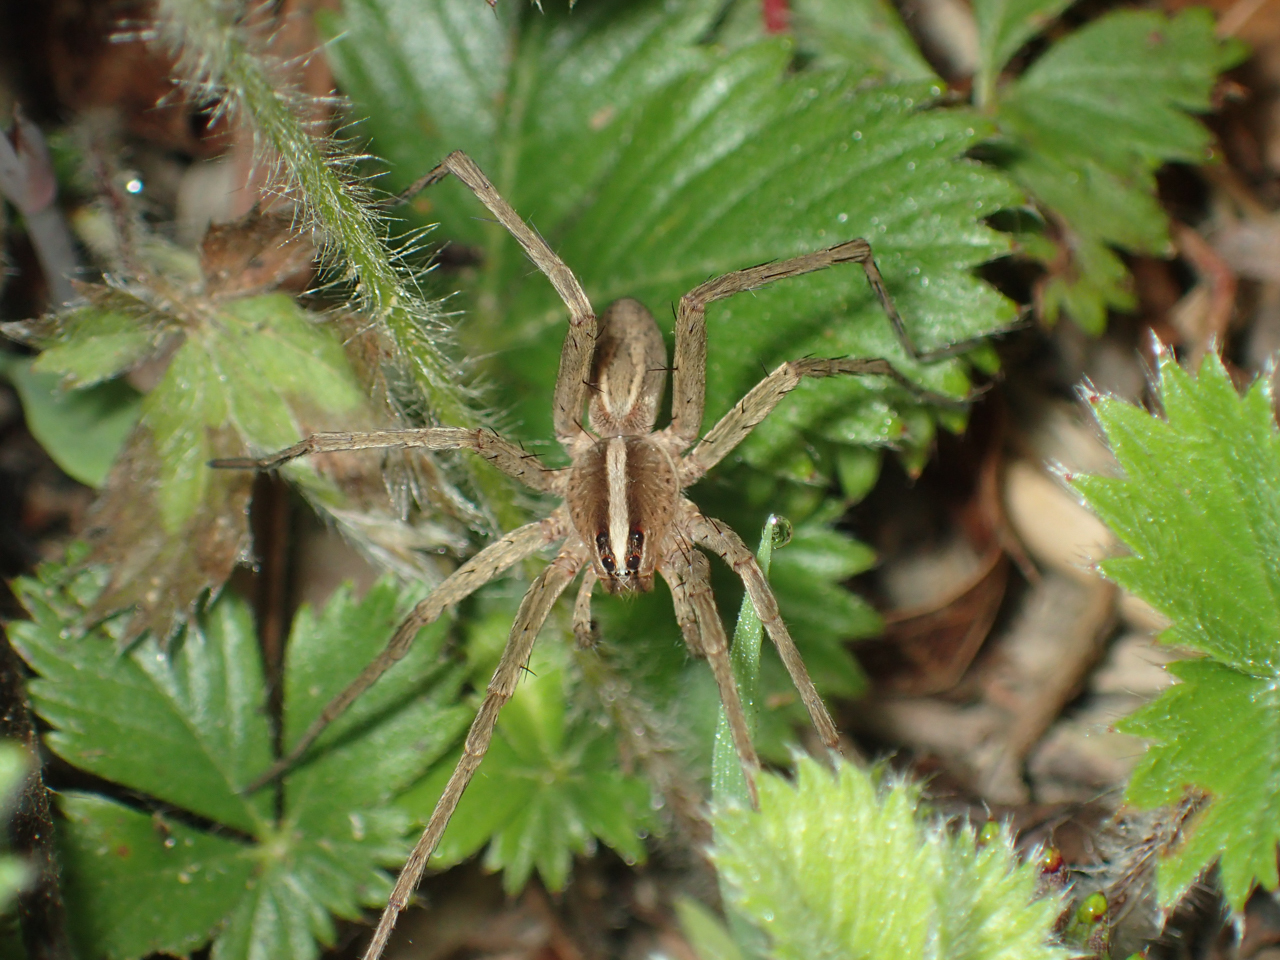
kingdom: Animalia
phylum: Arthropoda
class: Arachnida
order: Araneae
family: Lycosidae
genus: Rabidosa
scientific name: Rabidosa hentzi
